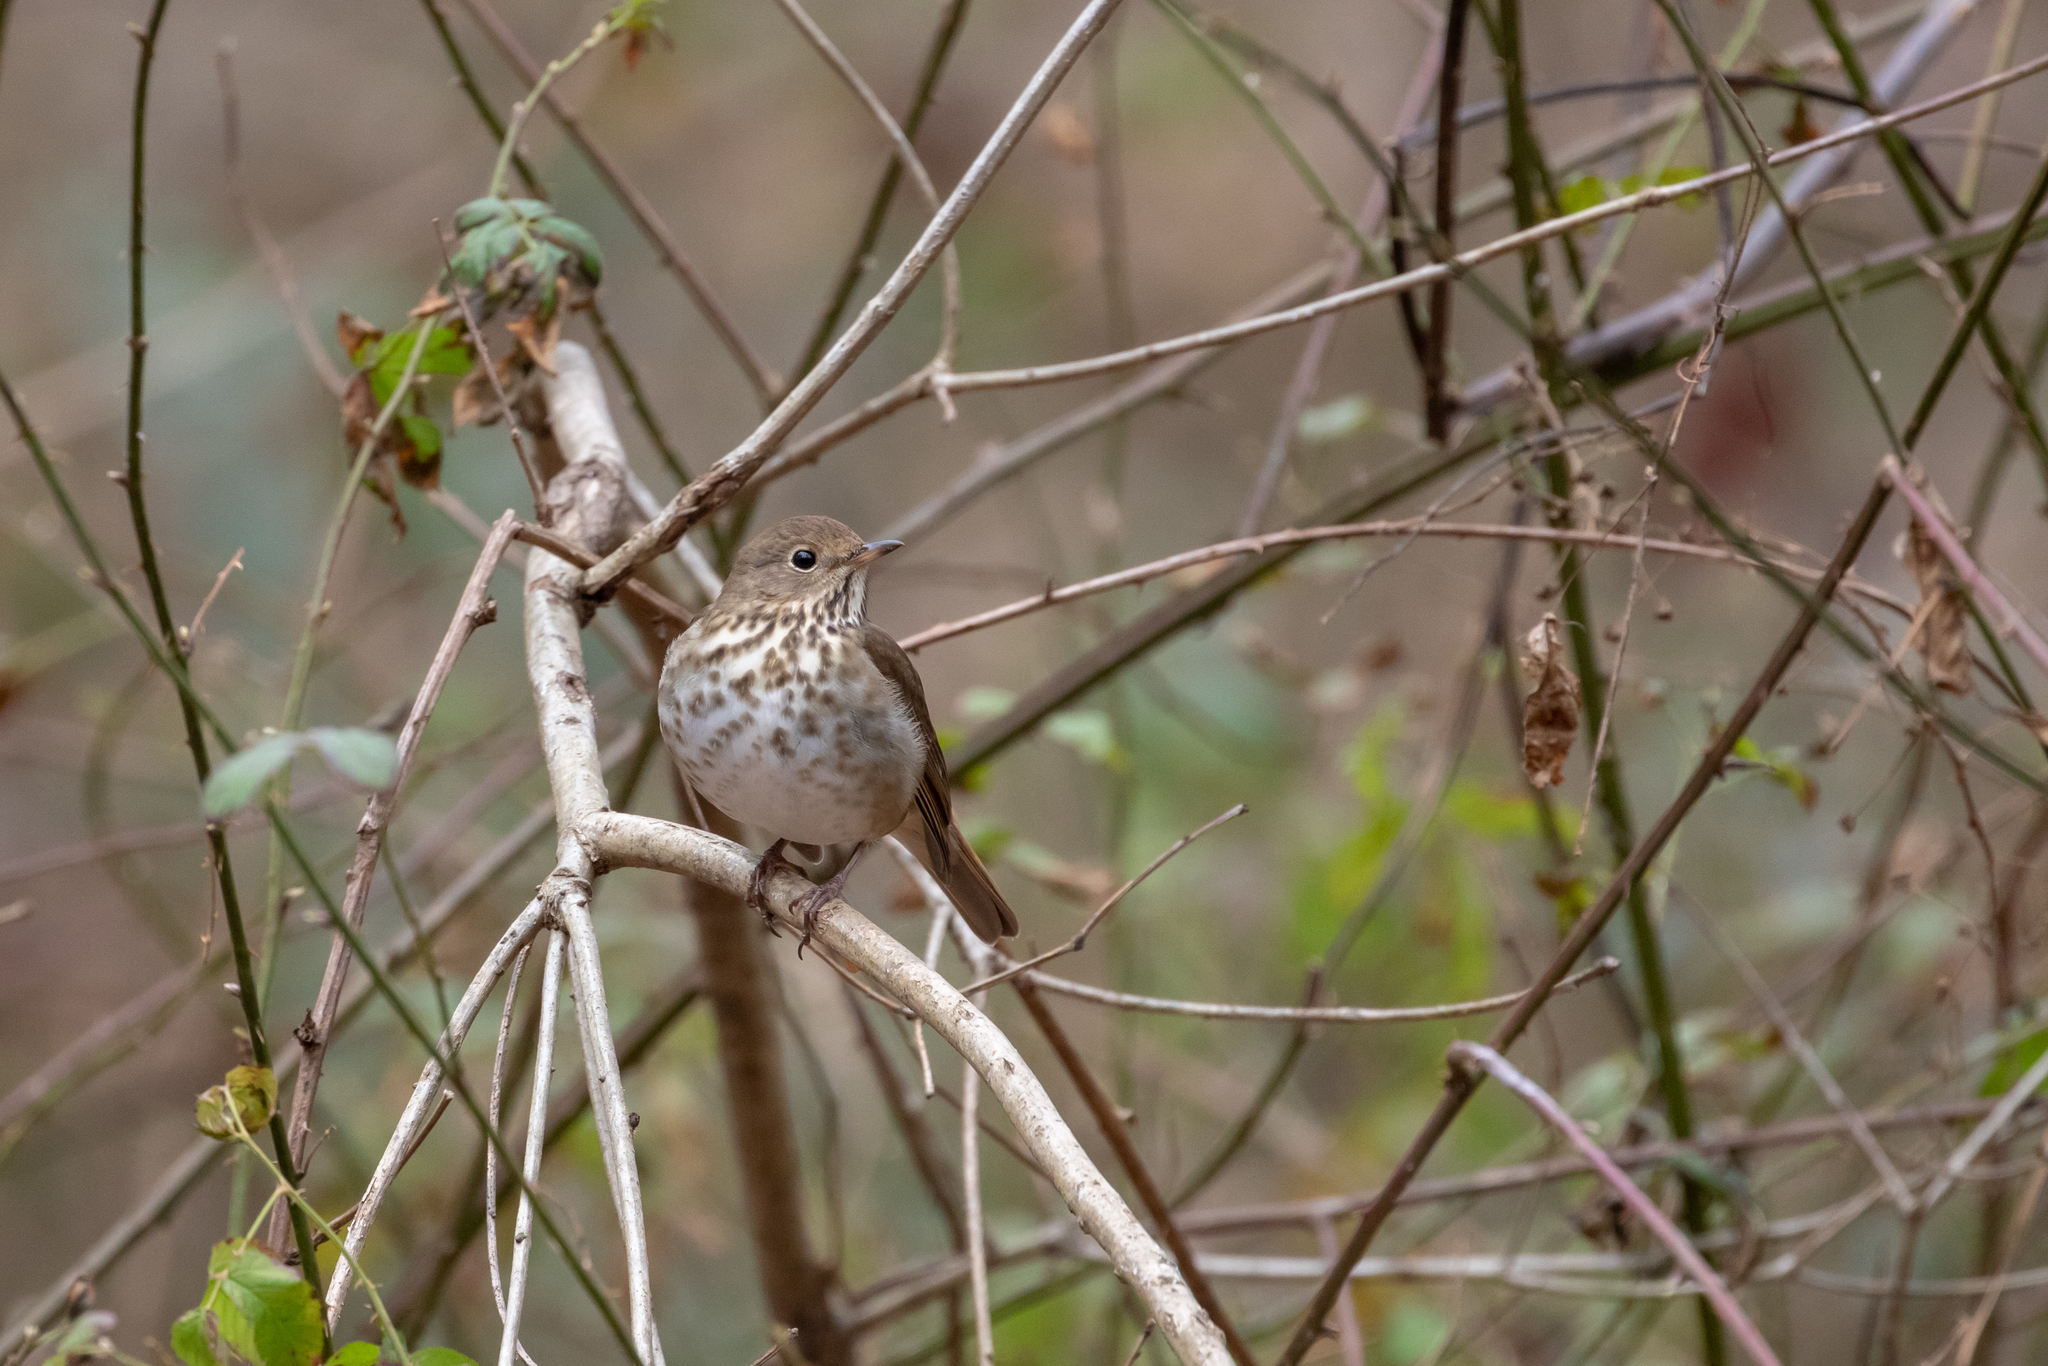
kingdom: Animalia
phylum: Chordata
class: Aves
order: Passeriformes
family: Turdidae
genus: Catharus
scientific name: Catharus guttatus
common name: Hermit thrush
